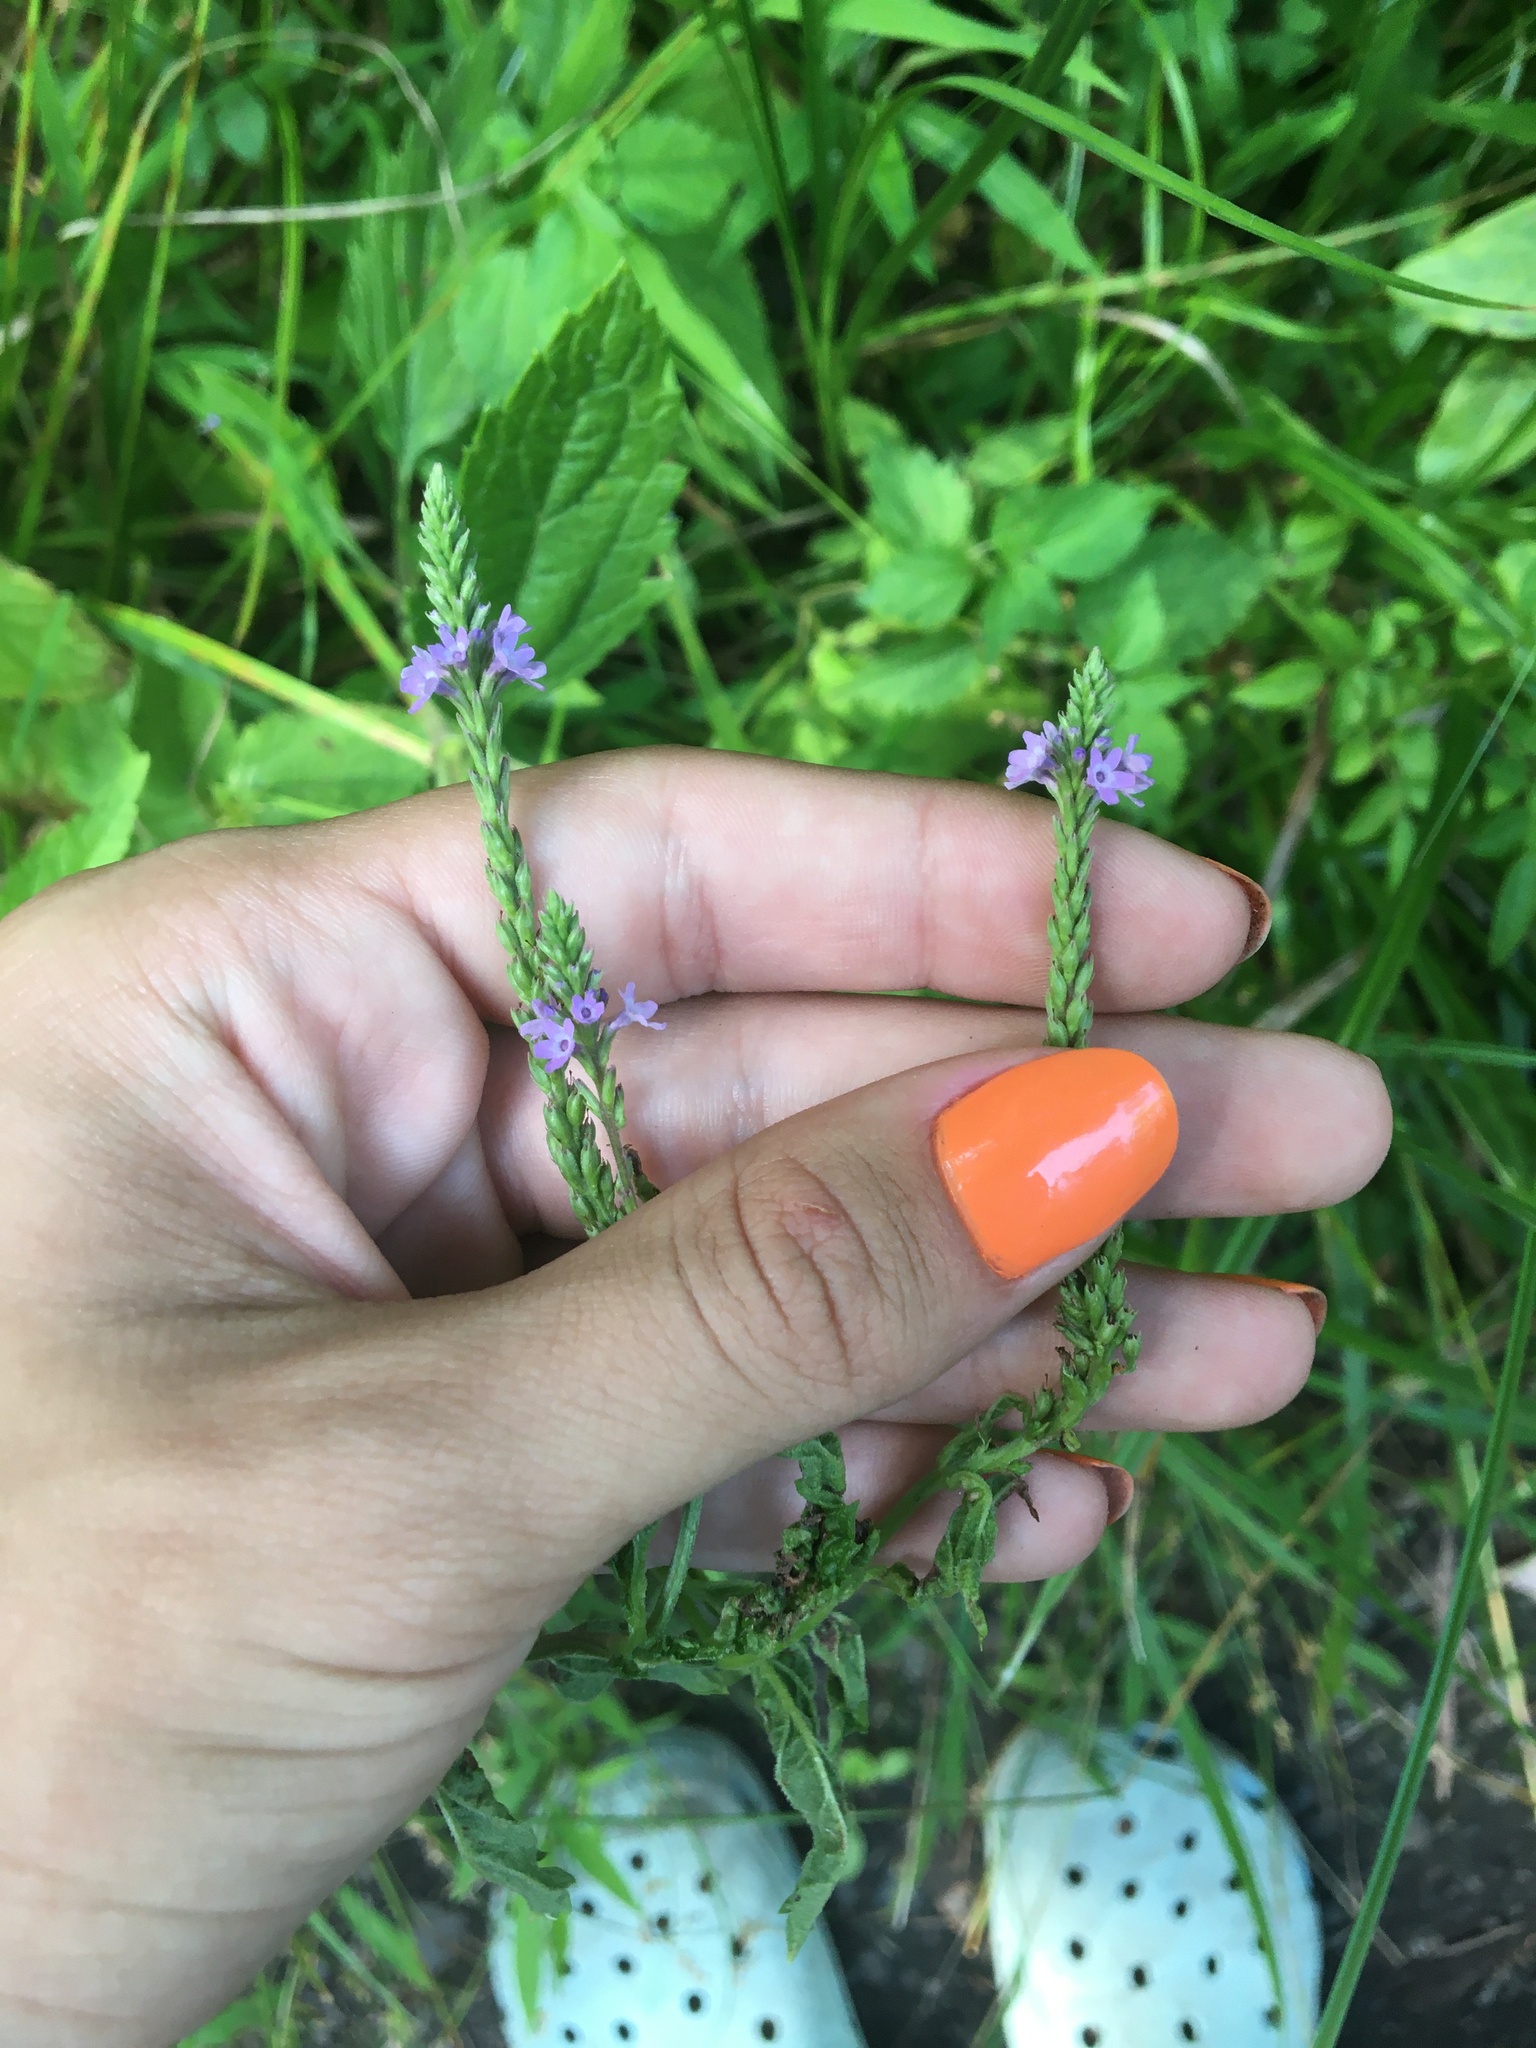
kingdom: Plantae
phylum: Tracheophyta
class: Magnoliopsida
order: Lamiales
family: Verbenaceae
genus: Verbena
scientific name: Verbena hastata
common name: American blue vervain
